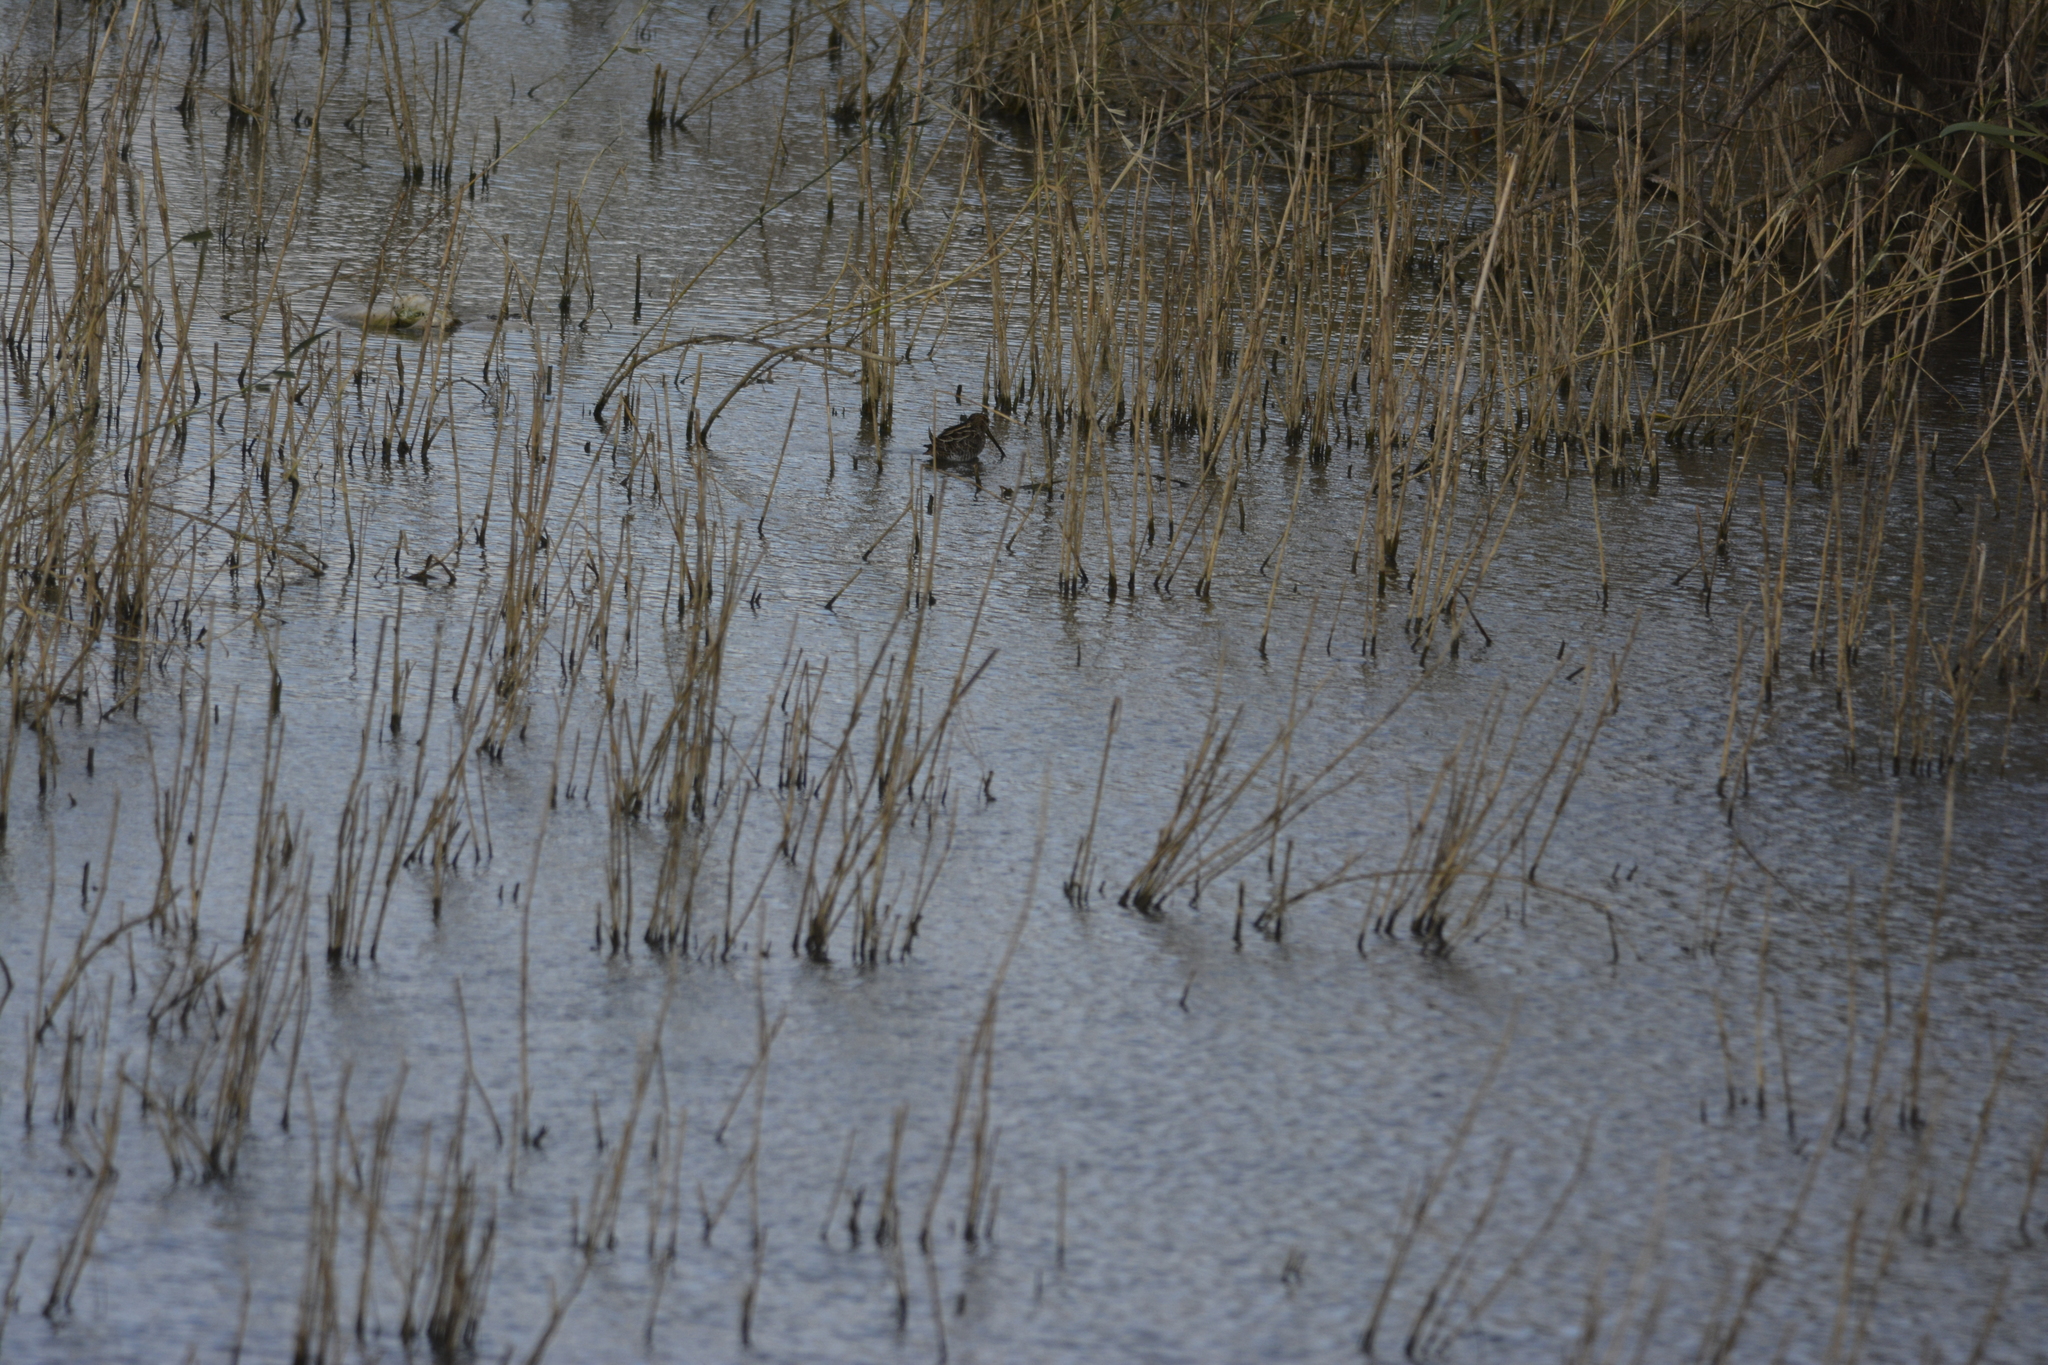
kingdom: Animalia
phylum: Chordata
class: Aves
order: Charadriiformes
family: Scolopacidae
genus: Gallinago
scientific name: Gallinago gallinago
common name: Common snipe
